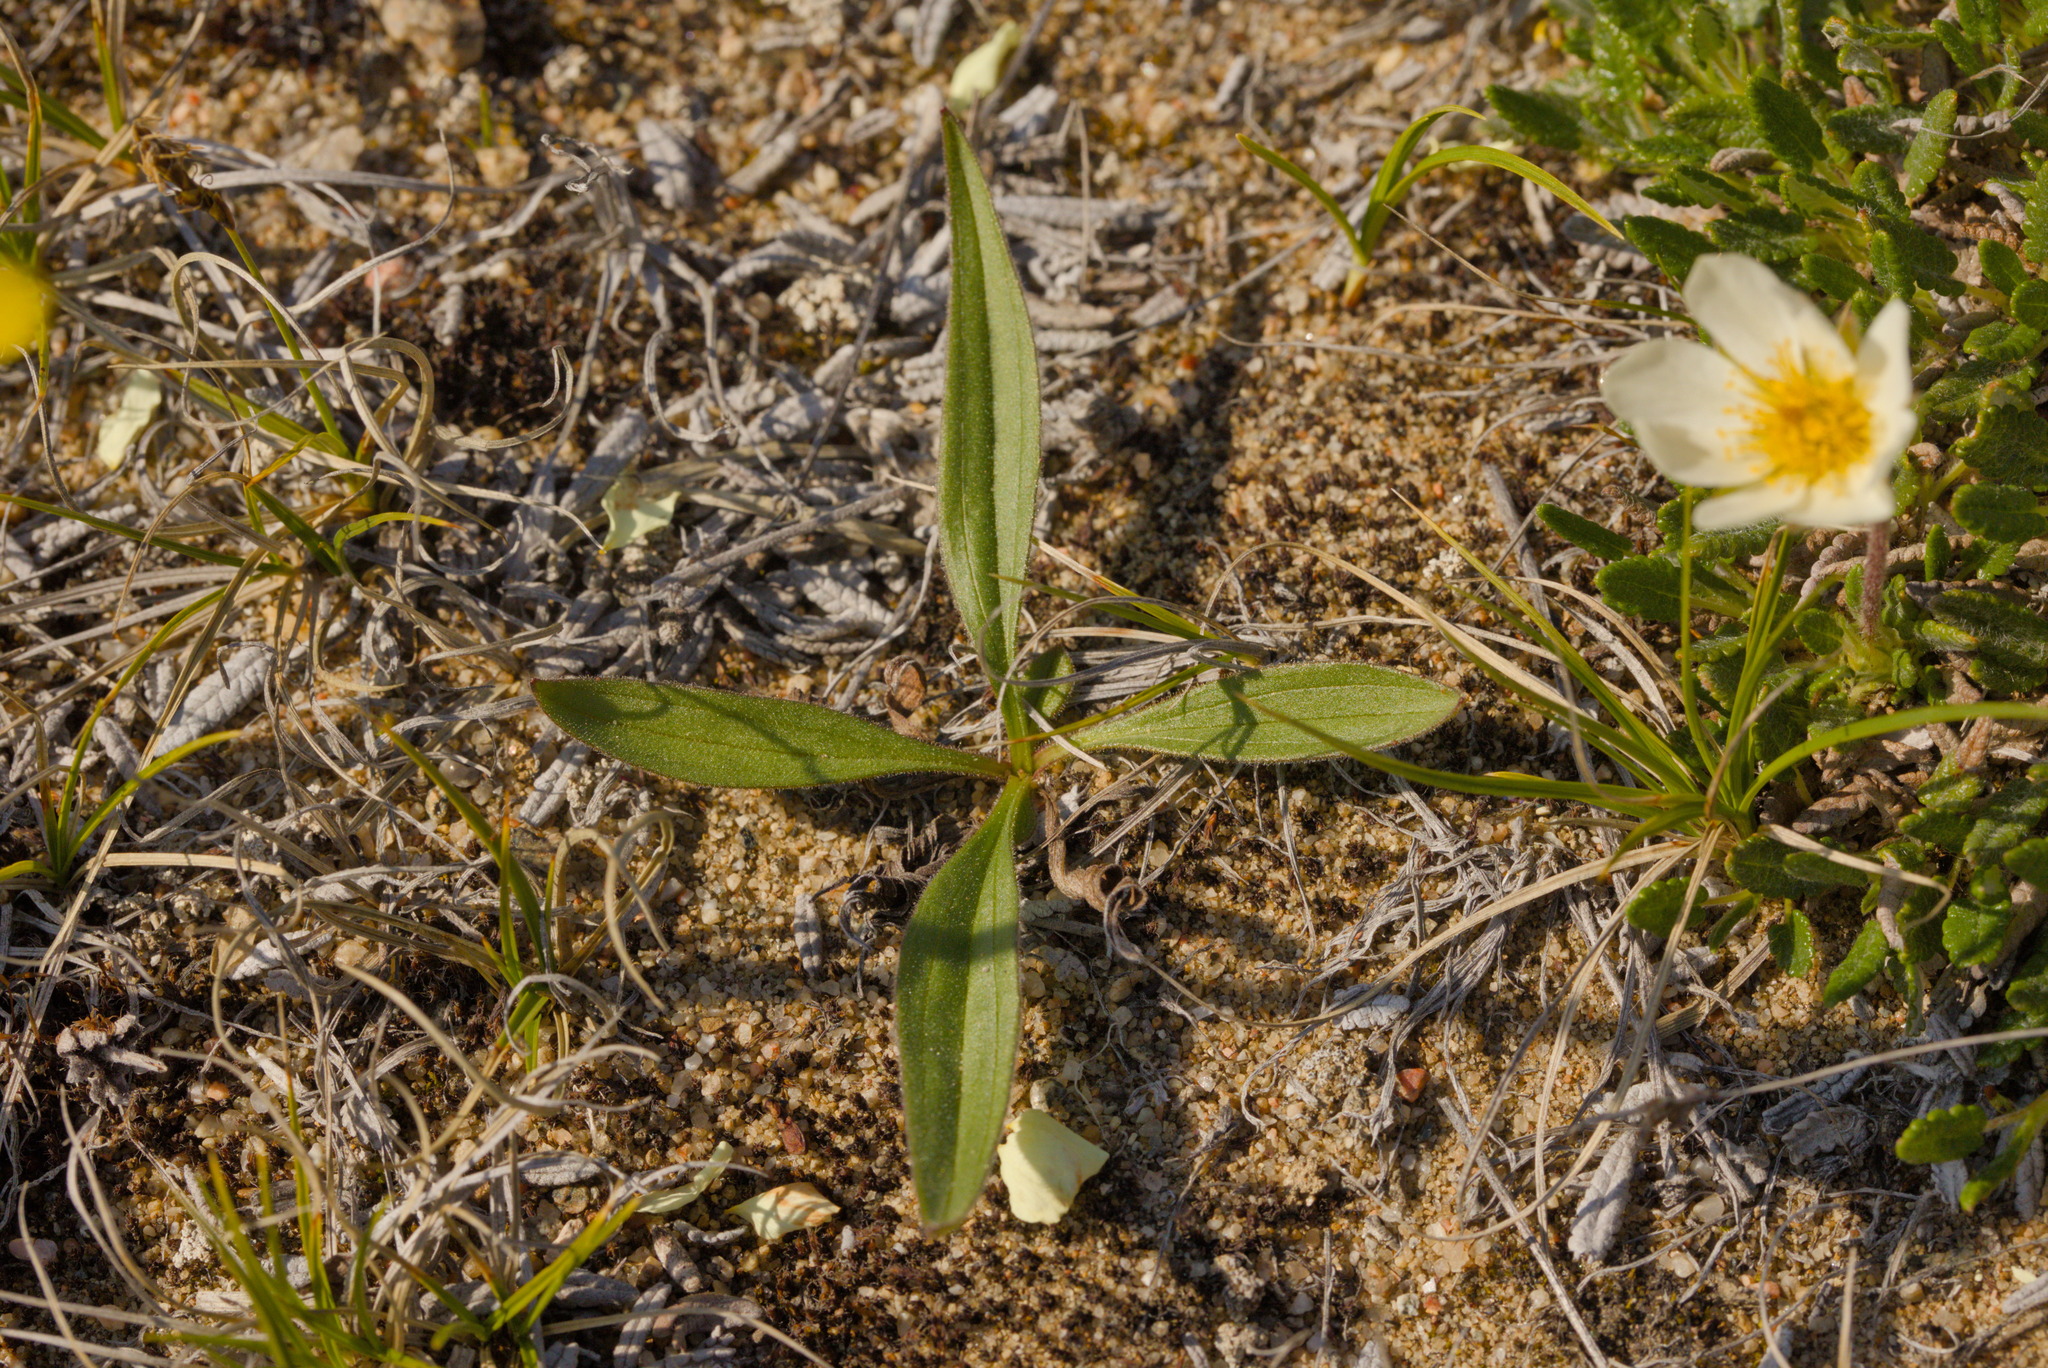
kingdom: Plantae
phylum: Tracheophyta
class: Magnoliopsida
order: Asterales
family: Asteraceae
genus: Arnica
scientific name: Arnica angustifolia
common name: Arctic arnica
